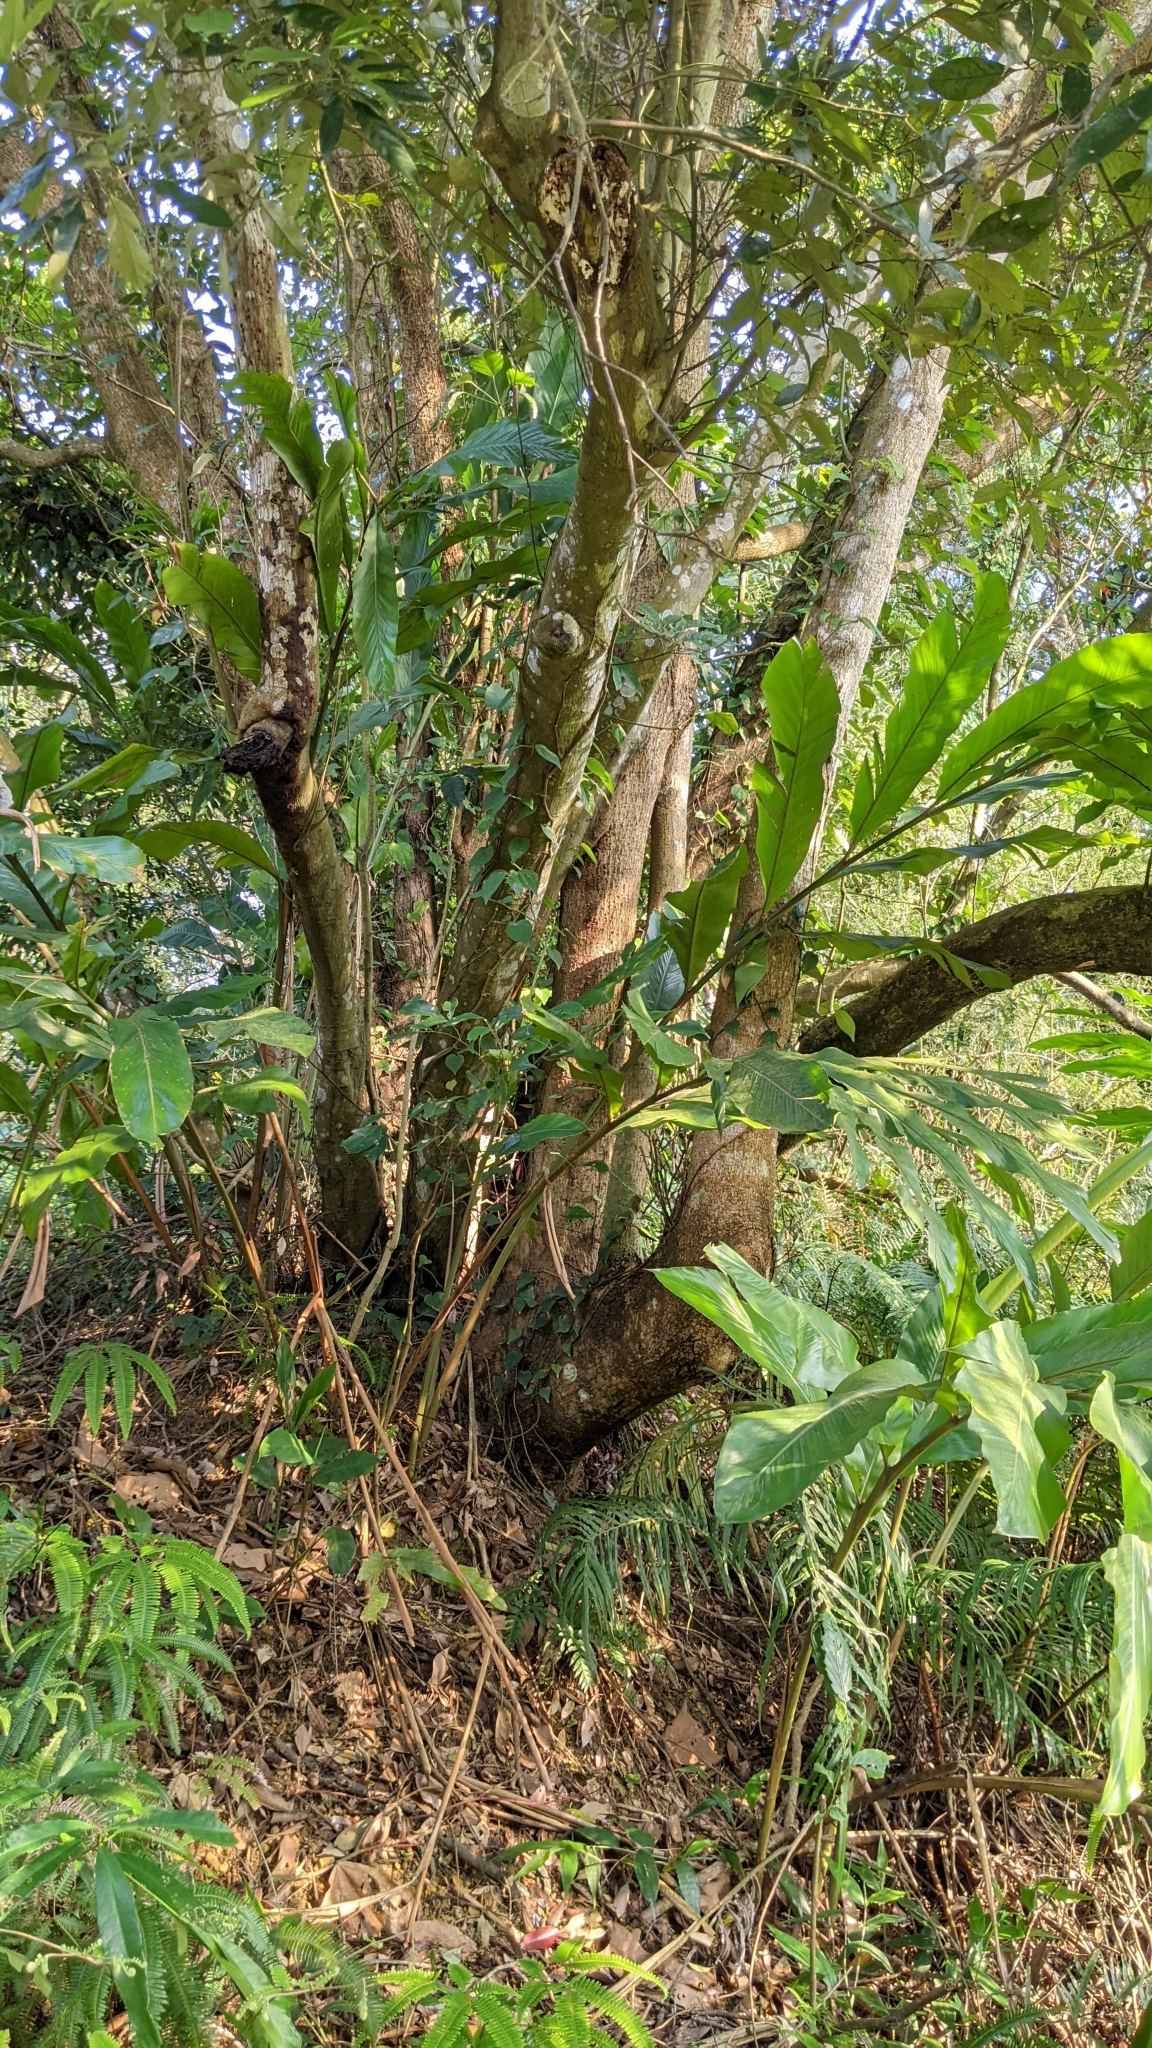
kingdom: Plantae
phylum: Tracheophyta
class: Magnoliopsida
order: Fagales
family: Fagaceae
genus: Lithocarpus
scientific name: Lithocarpus glaber
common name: Japanese-oak
